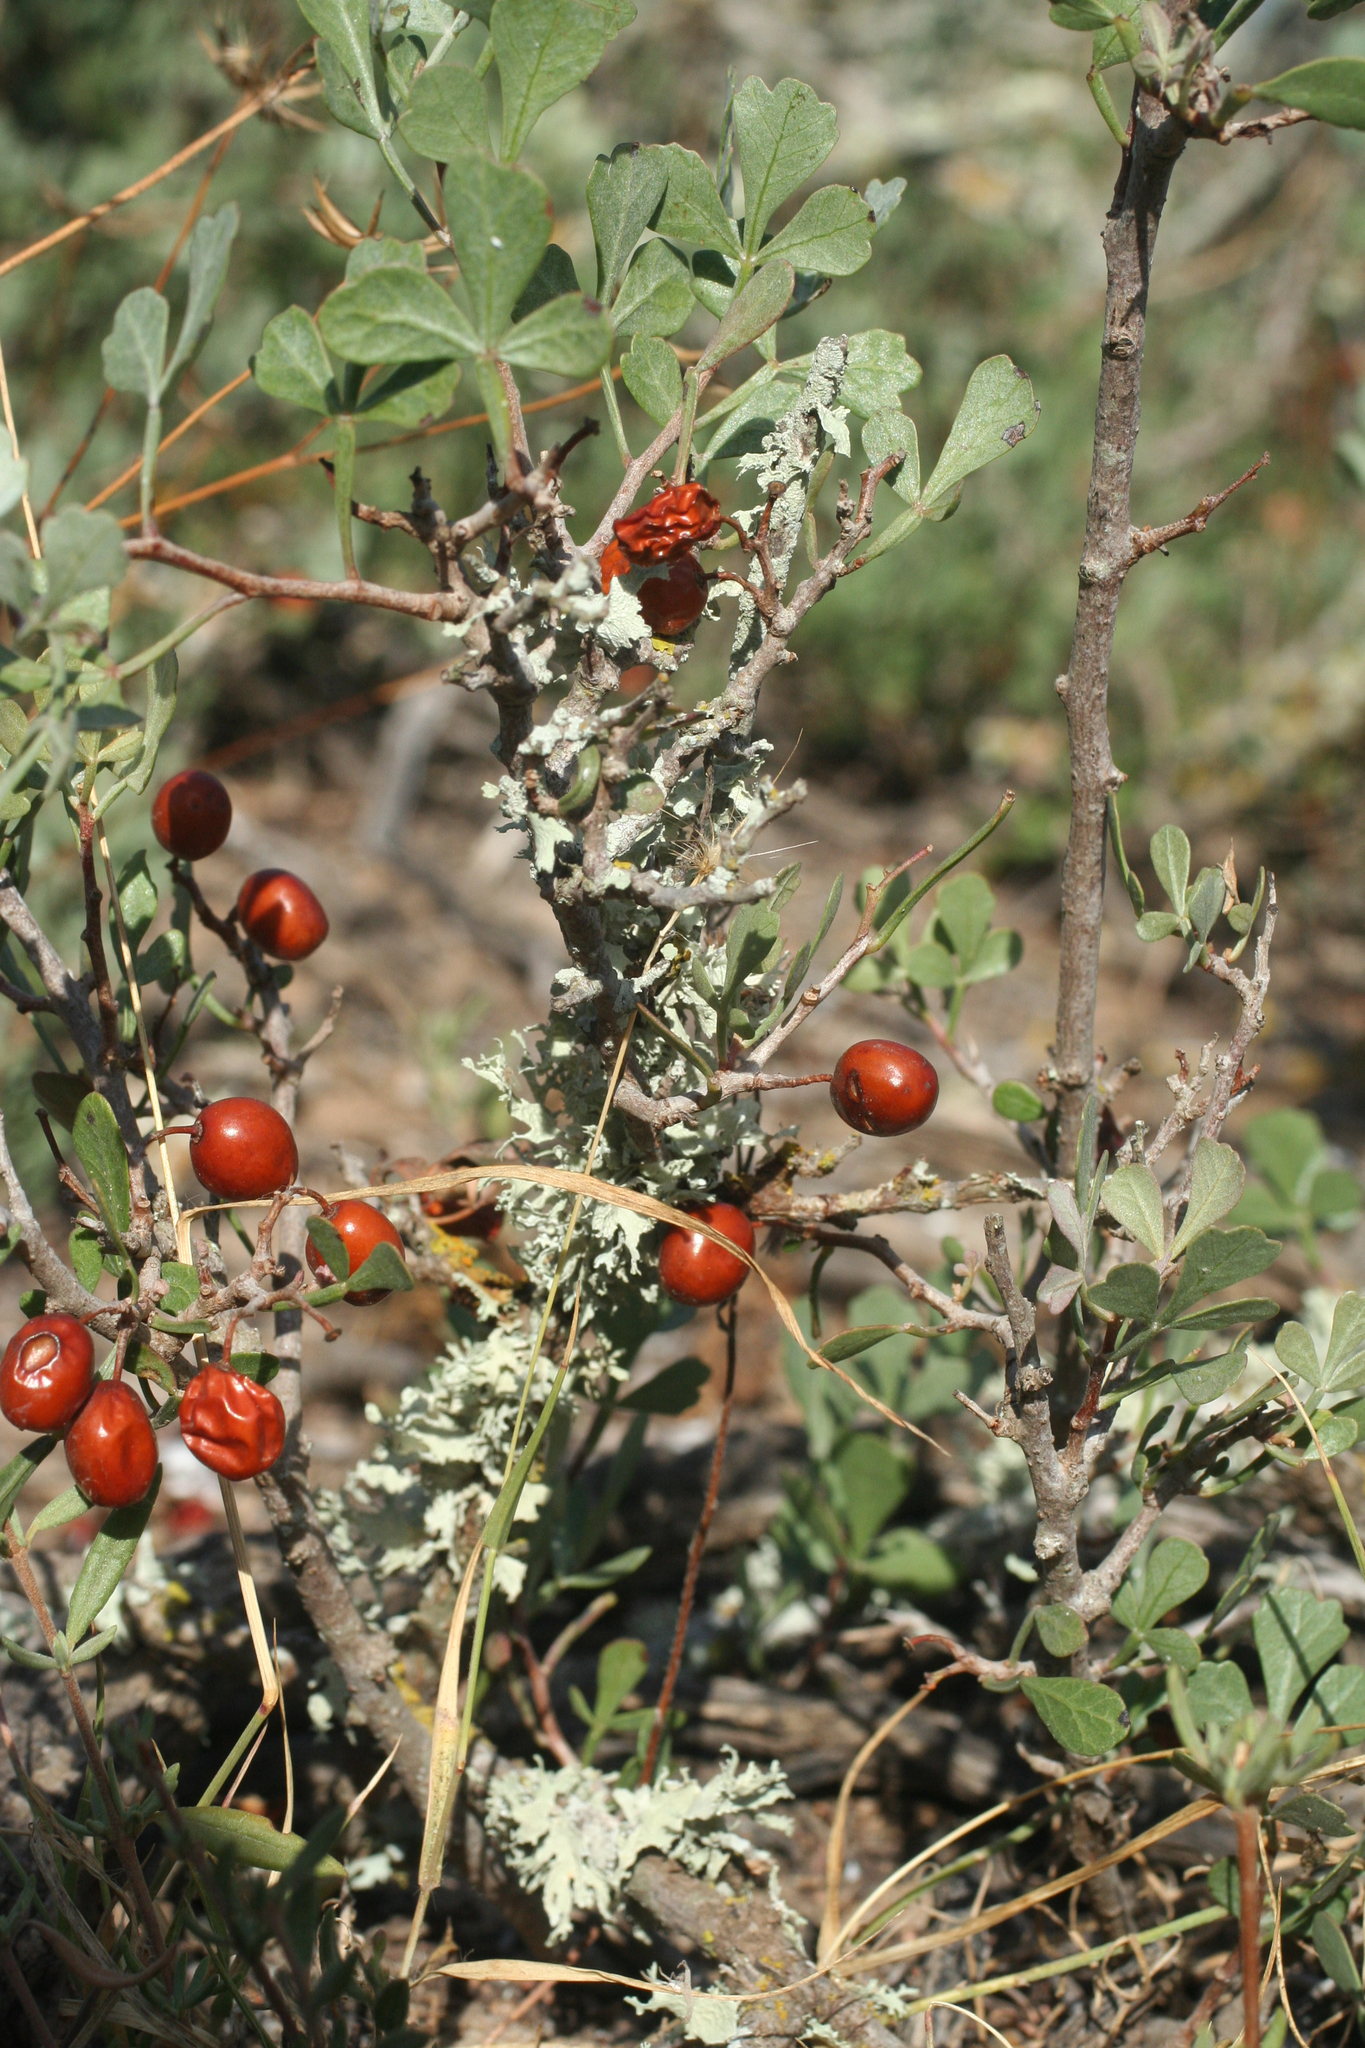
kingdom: Plantae
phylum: Tracheophyta
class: Magnoliopsida
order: Sapindales
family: Anacardiaceae
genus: Searsia
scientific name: Searsia tripartita
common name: Tripartite sumac
